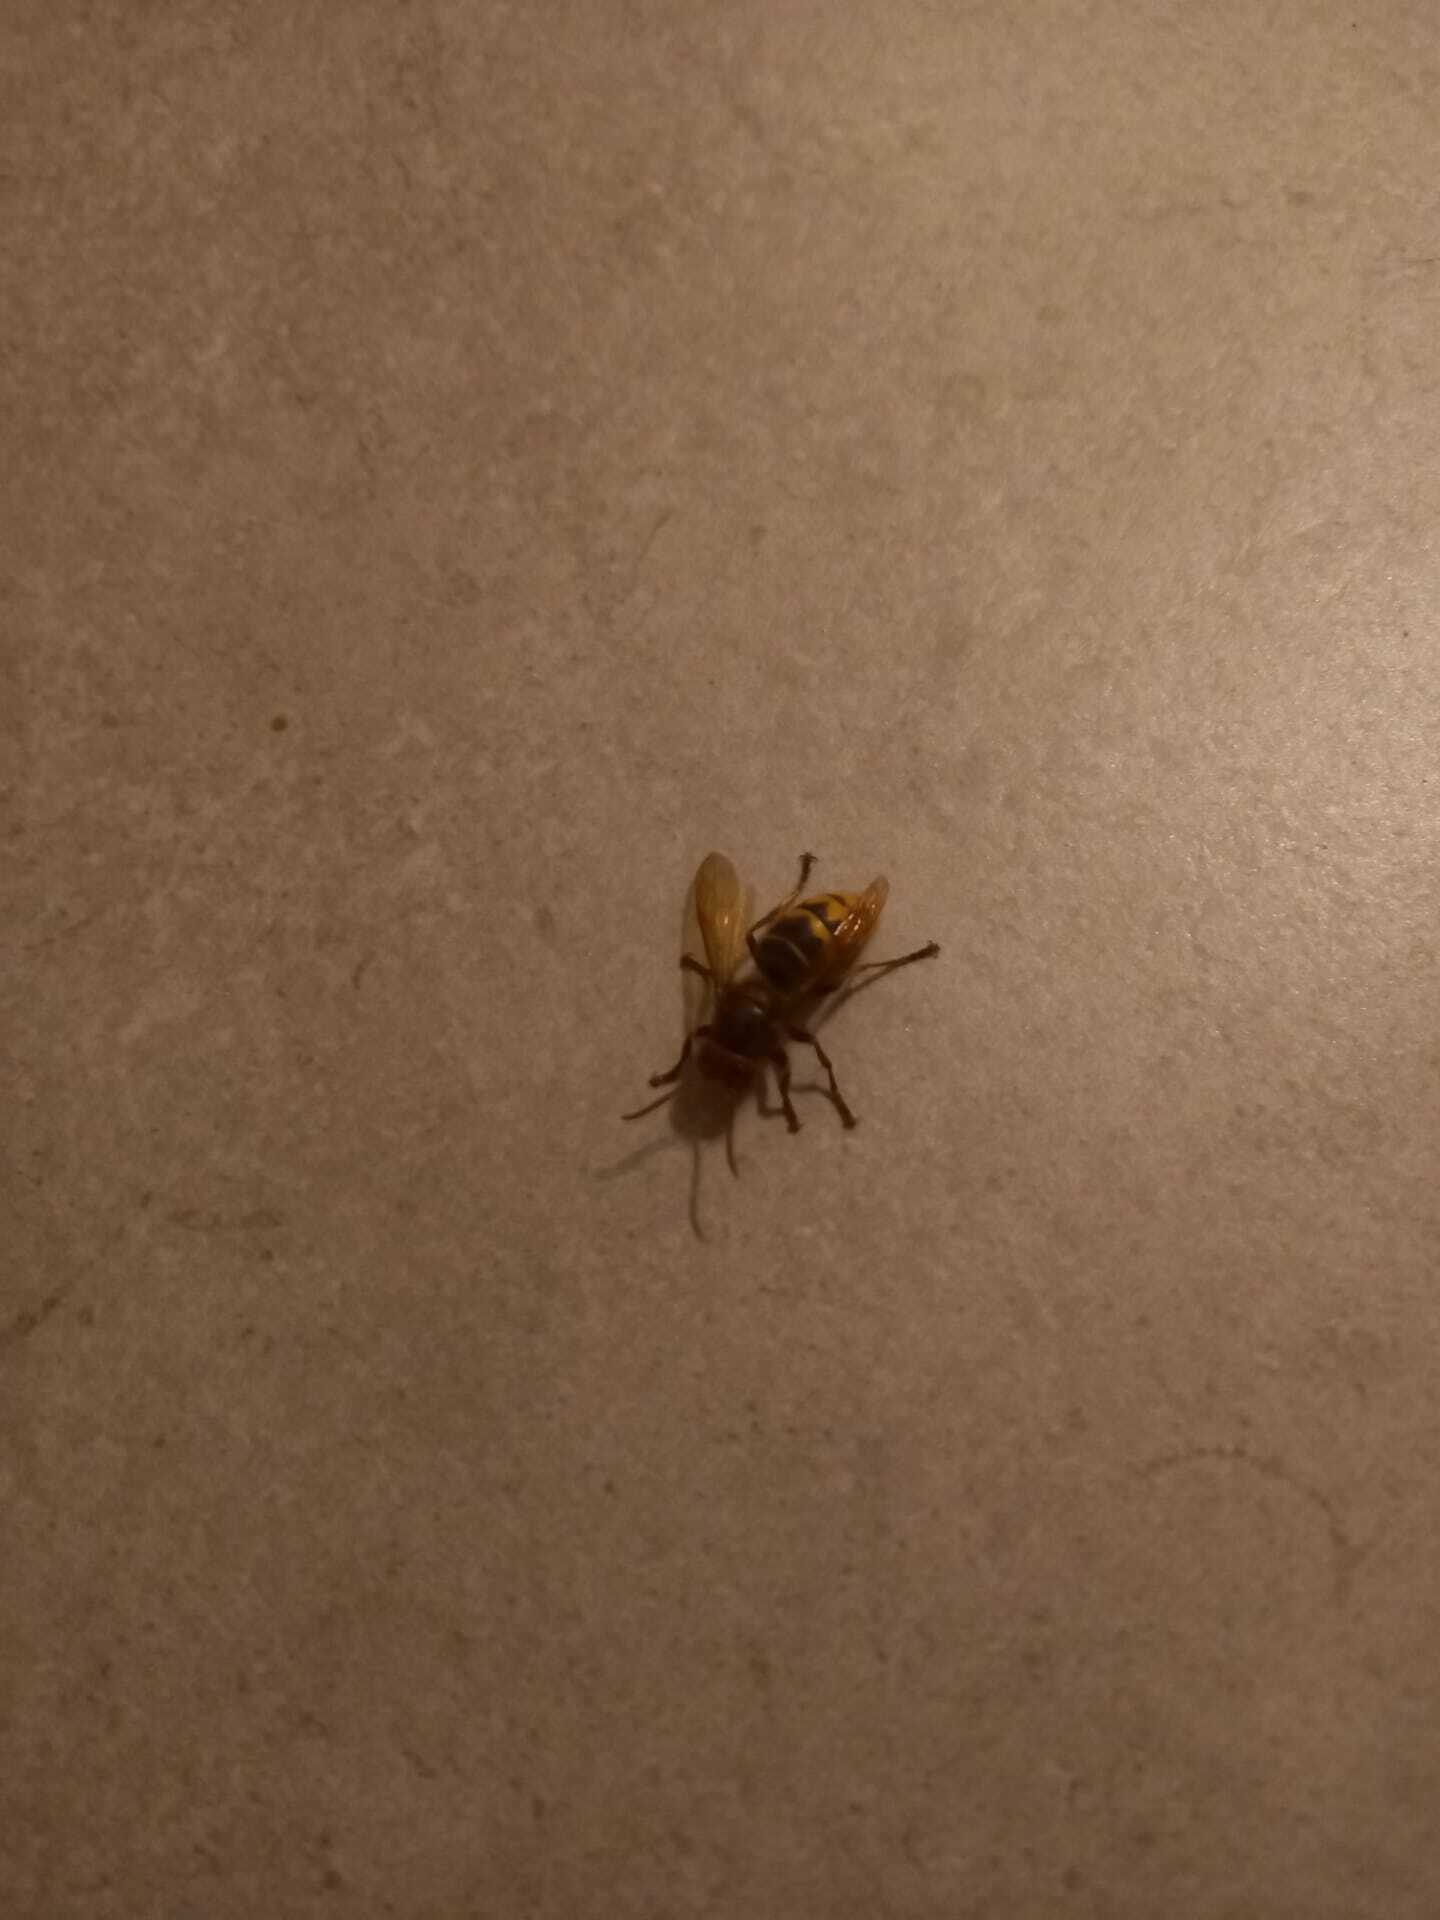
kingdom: Animalia
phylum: Arthropoda
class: Insecta
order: Hymenoptera
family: Vespidae
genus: Vespa
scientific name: Vespa crabro
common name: Hornet
